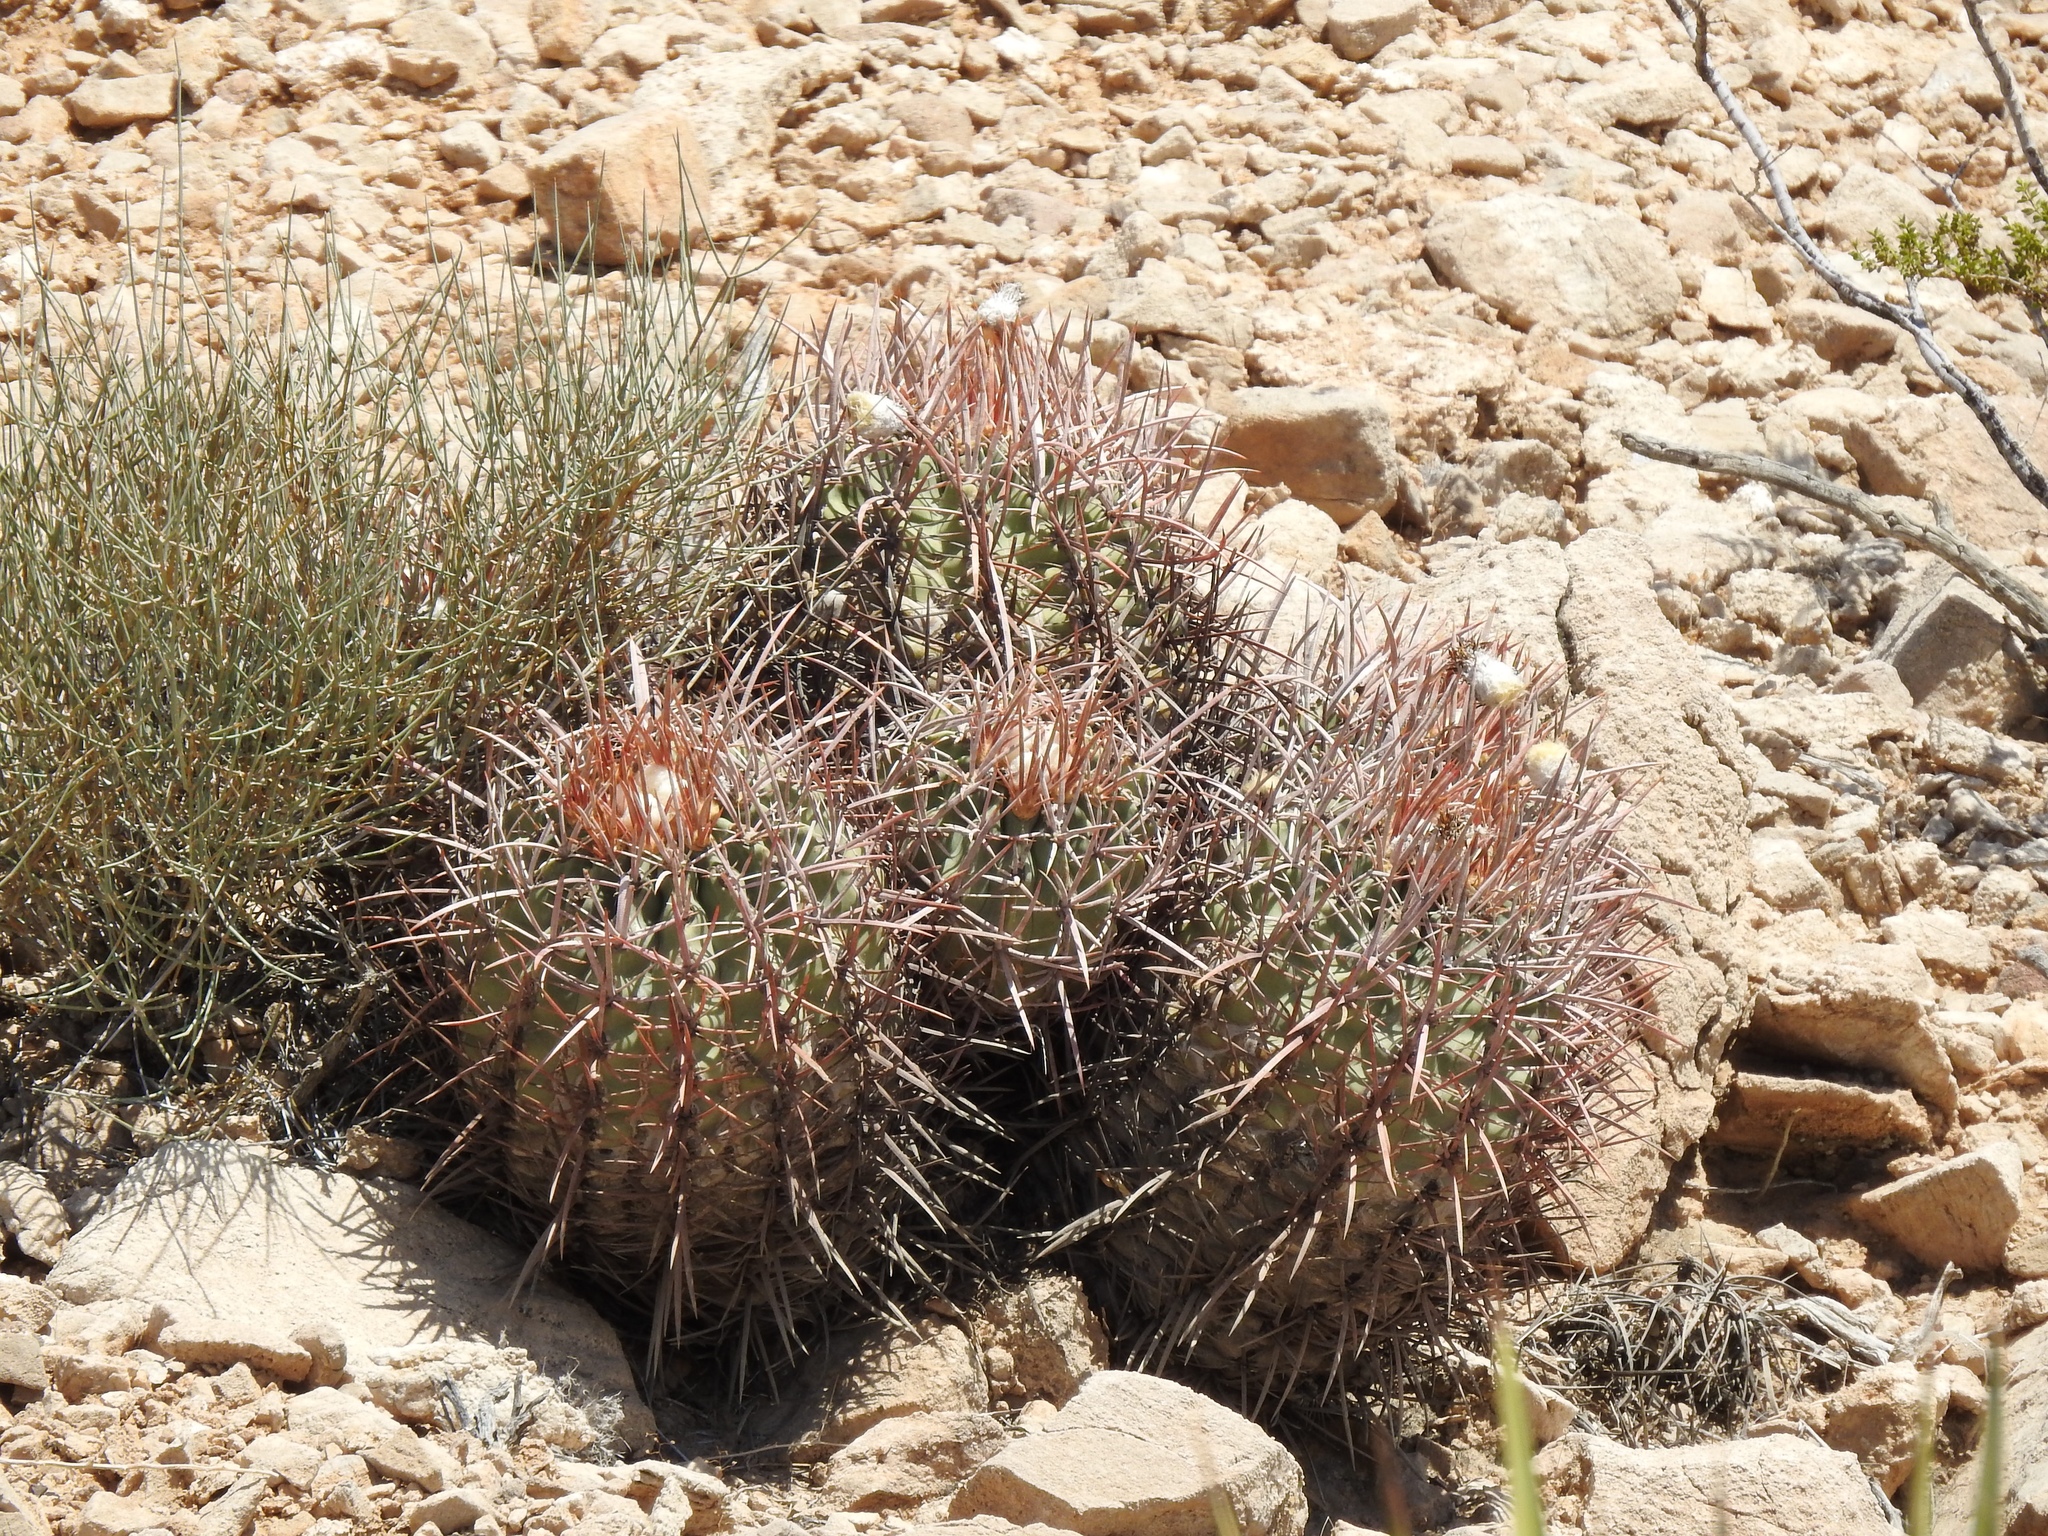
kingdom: Plantae
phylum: Tracheophyta
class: Magnoliopsida
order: Caryophyllales
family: Cactaceae
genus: Echinocactus
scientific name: Echinocactus polycephalus
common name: Cottontop cactus
